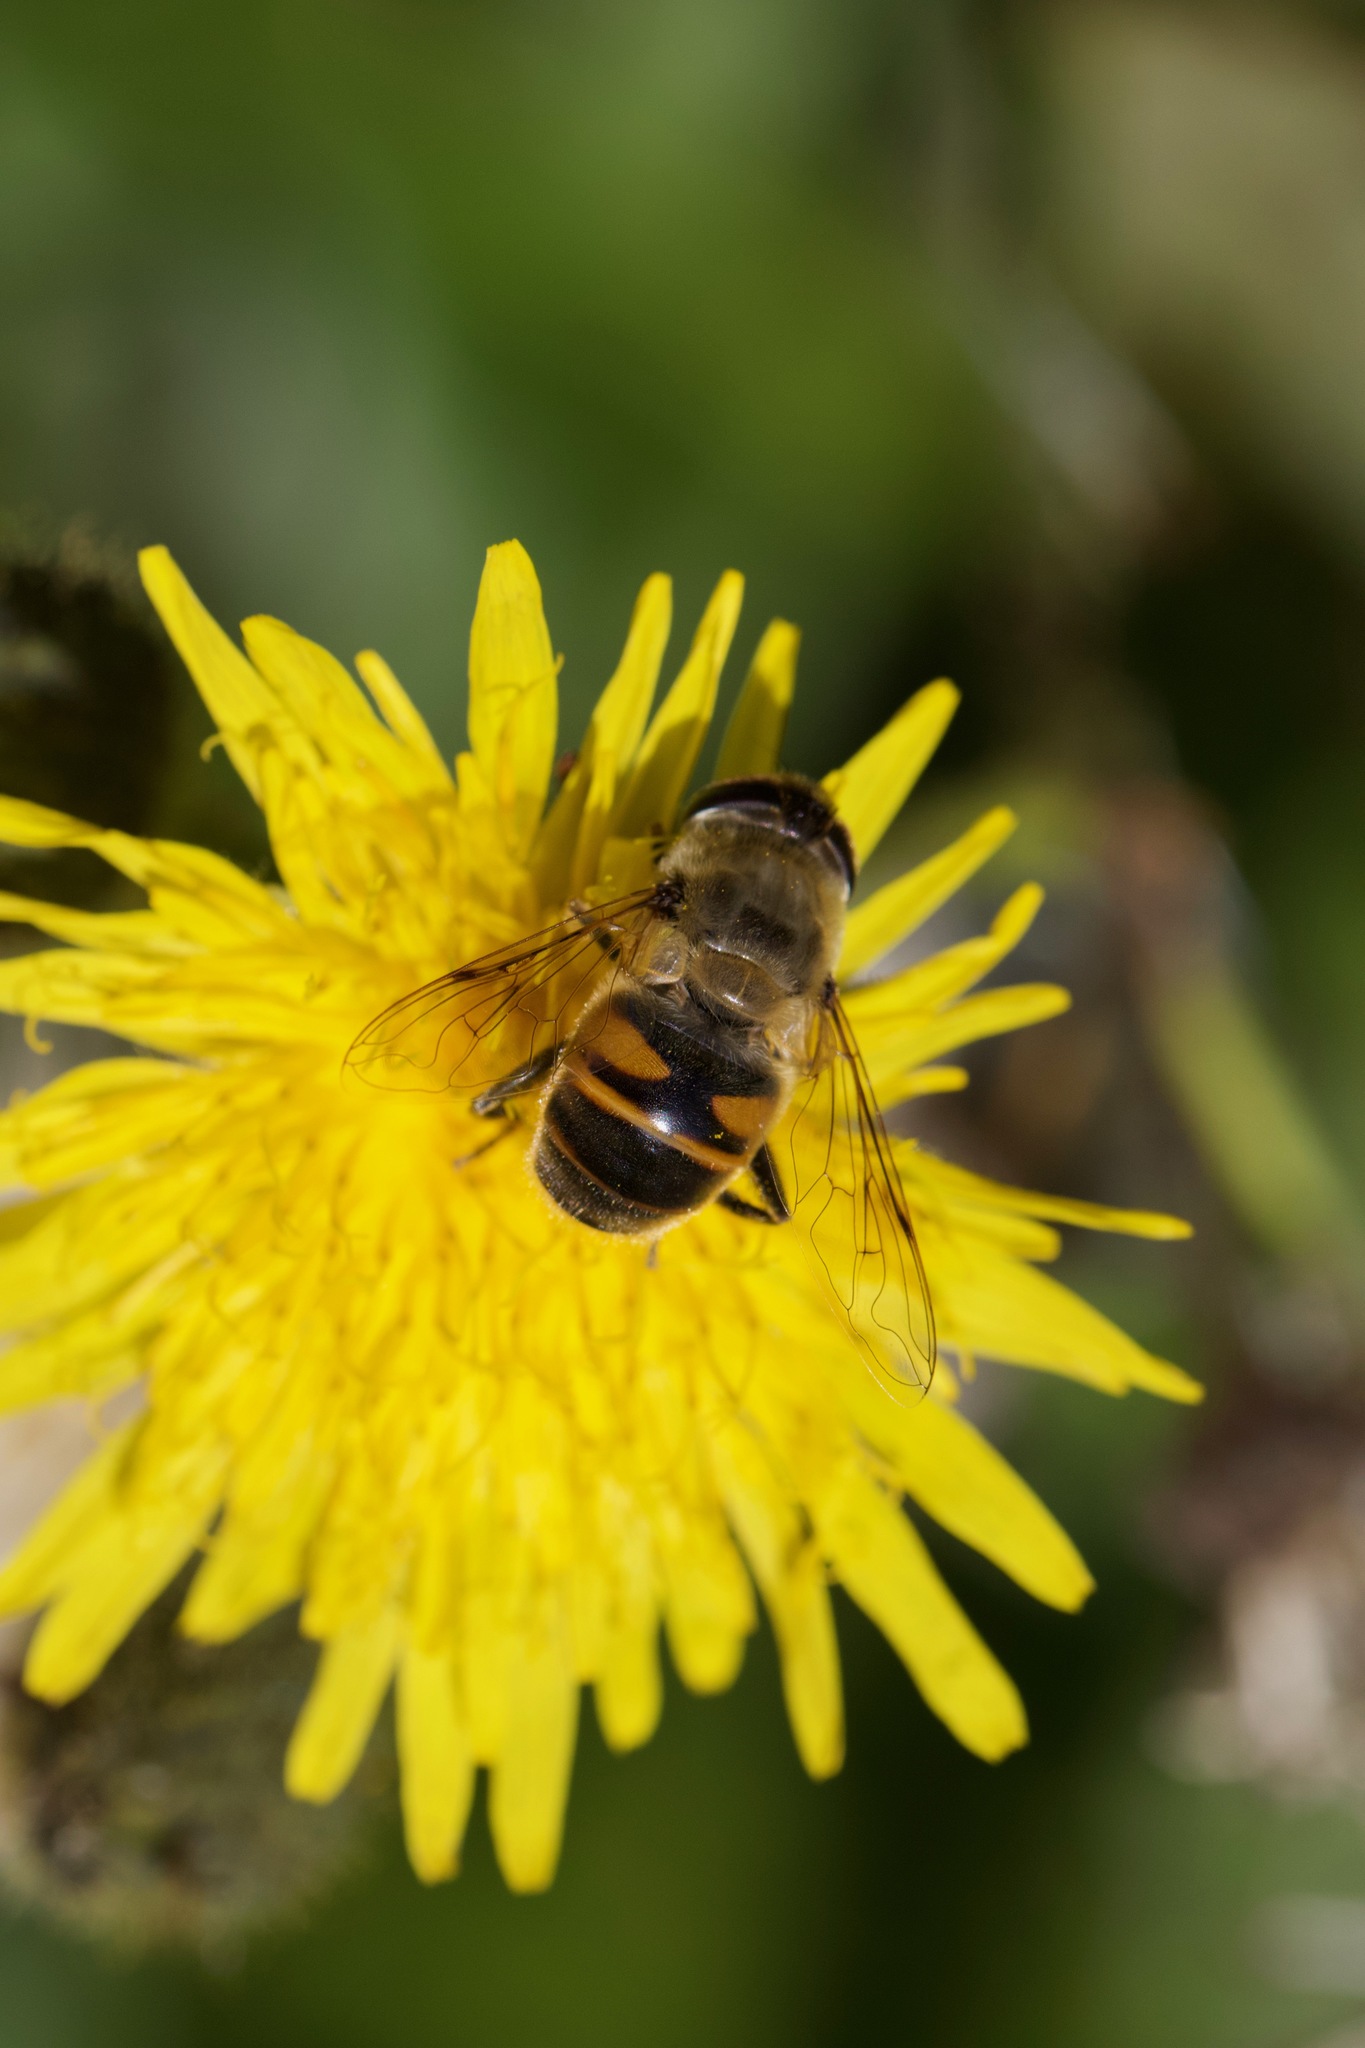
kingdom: Animalia
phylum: Arthropoda
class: Insecta
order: Diptera
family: Syrphidae
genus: Eristalis
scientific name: Eristalis tenax
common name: Drone fly
